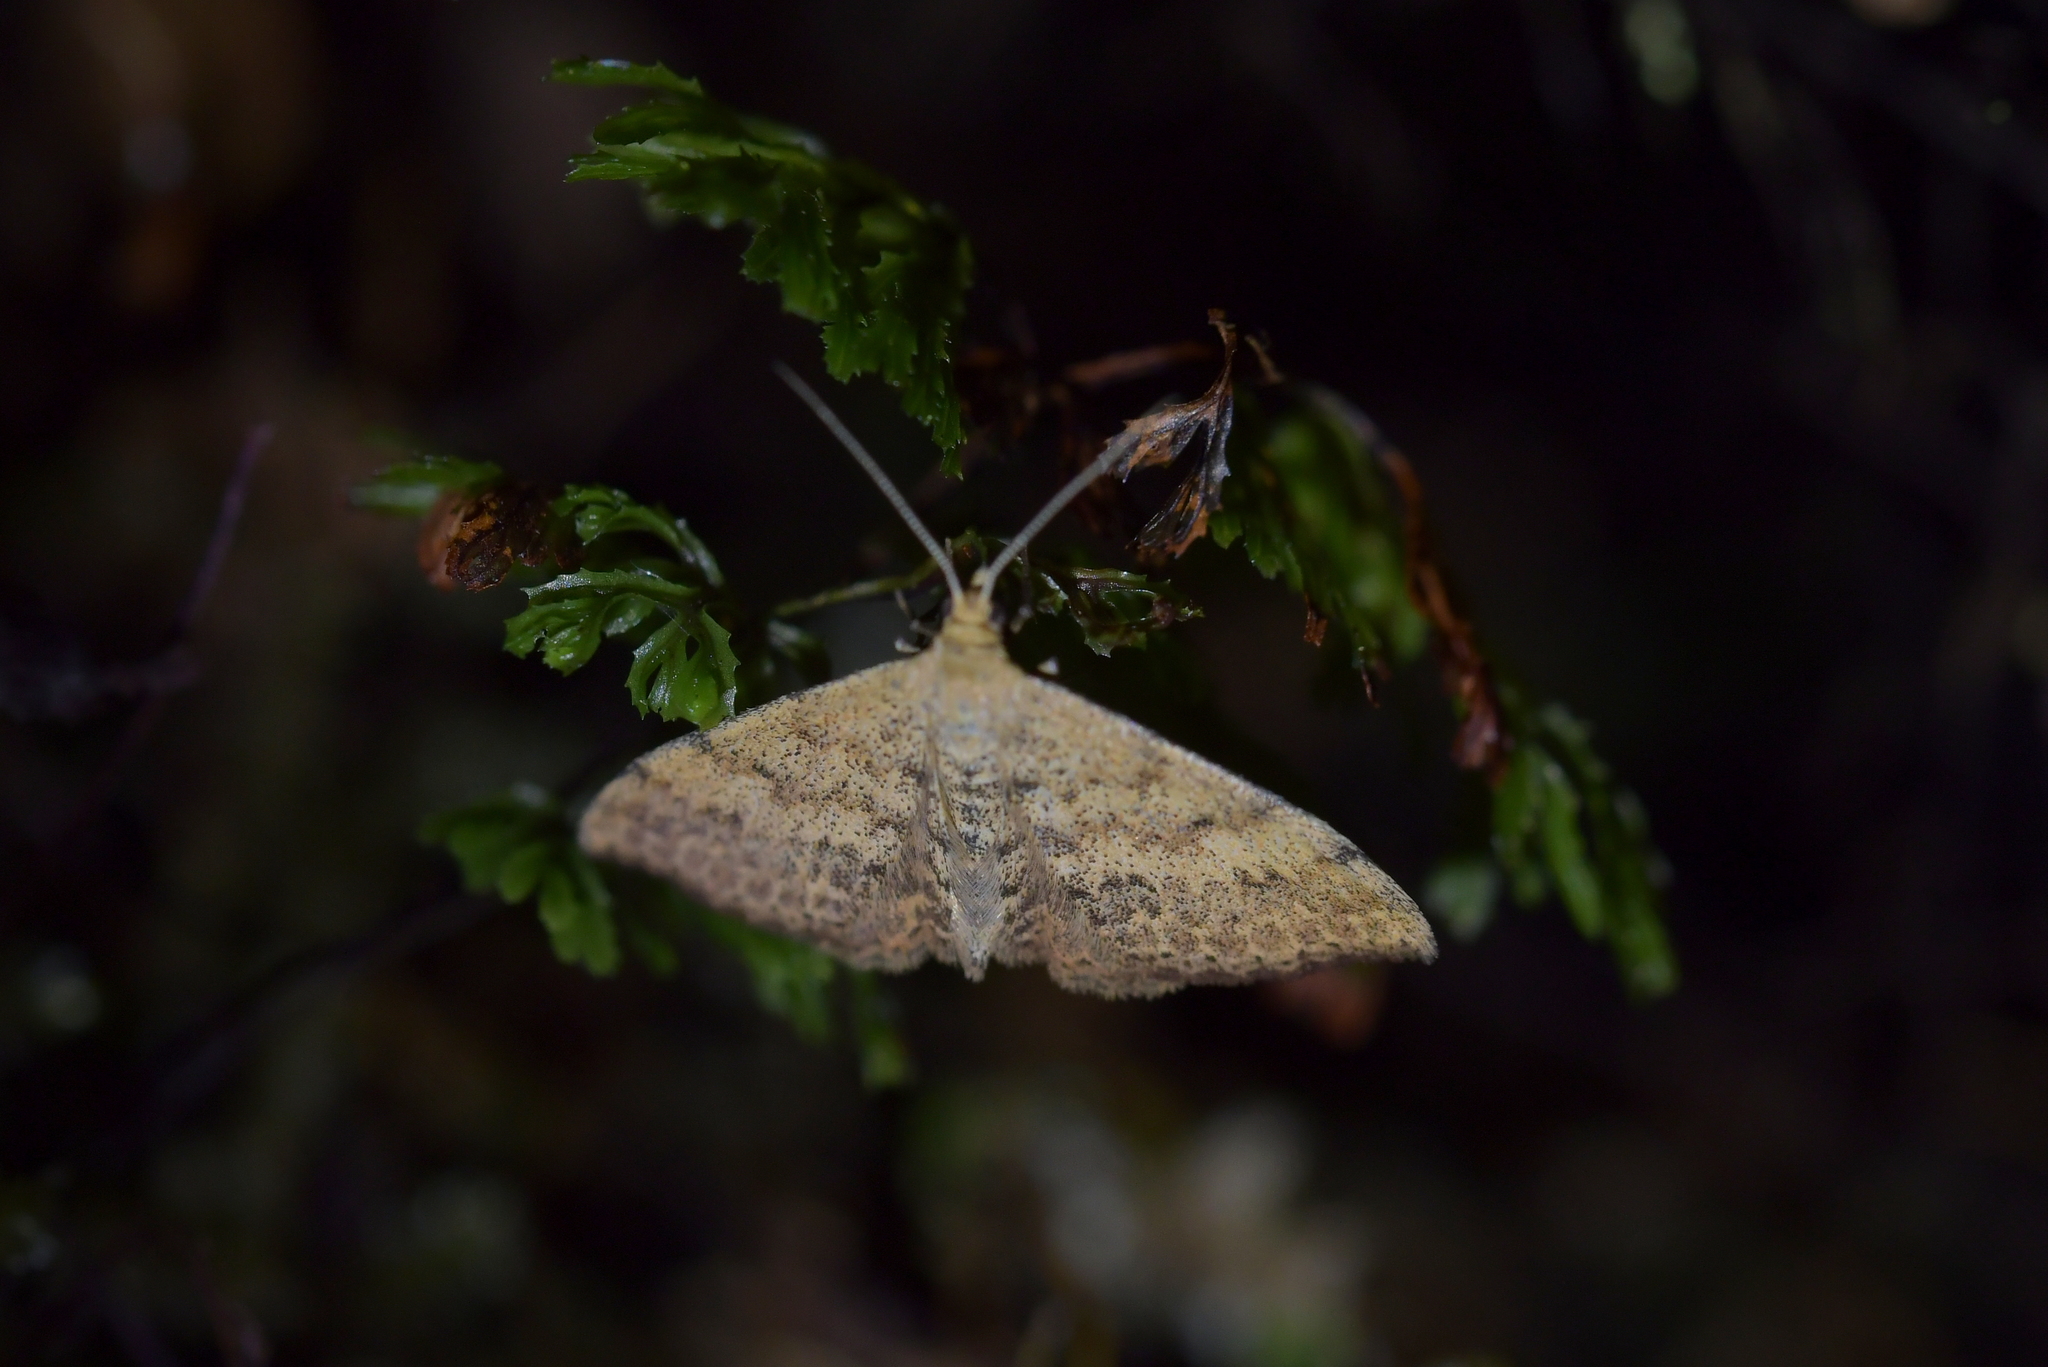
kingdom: Animalia
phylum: Arthropoda
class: Insecta
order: Lepidoptera
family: Geometridae
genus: Scopula
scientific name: Scopula rubraria
